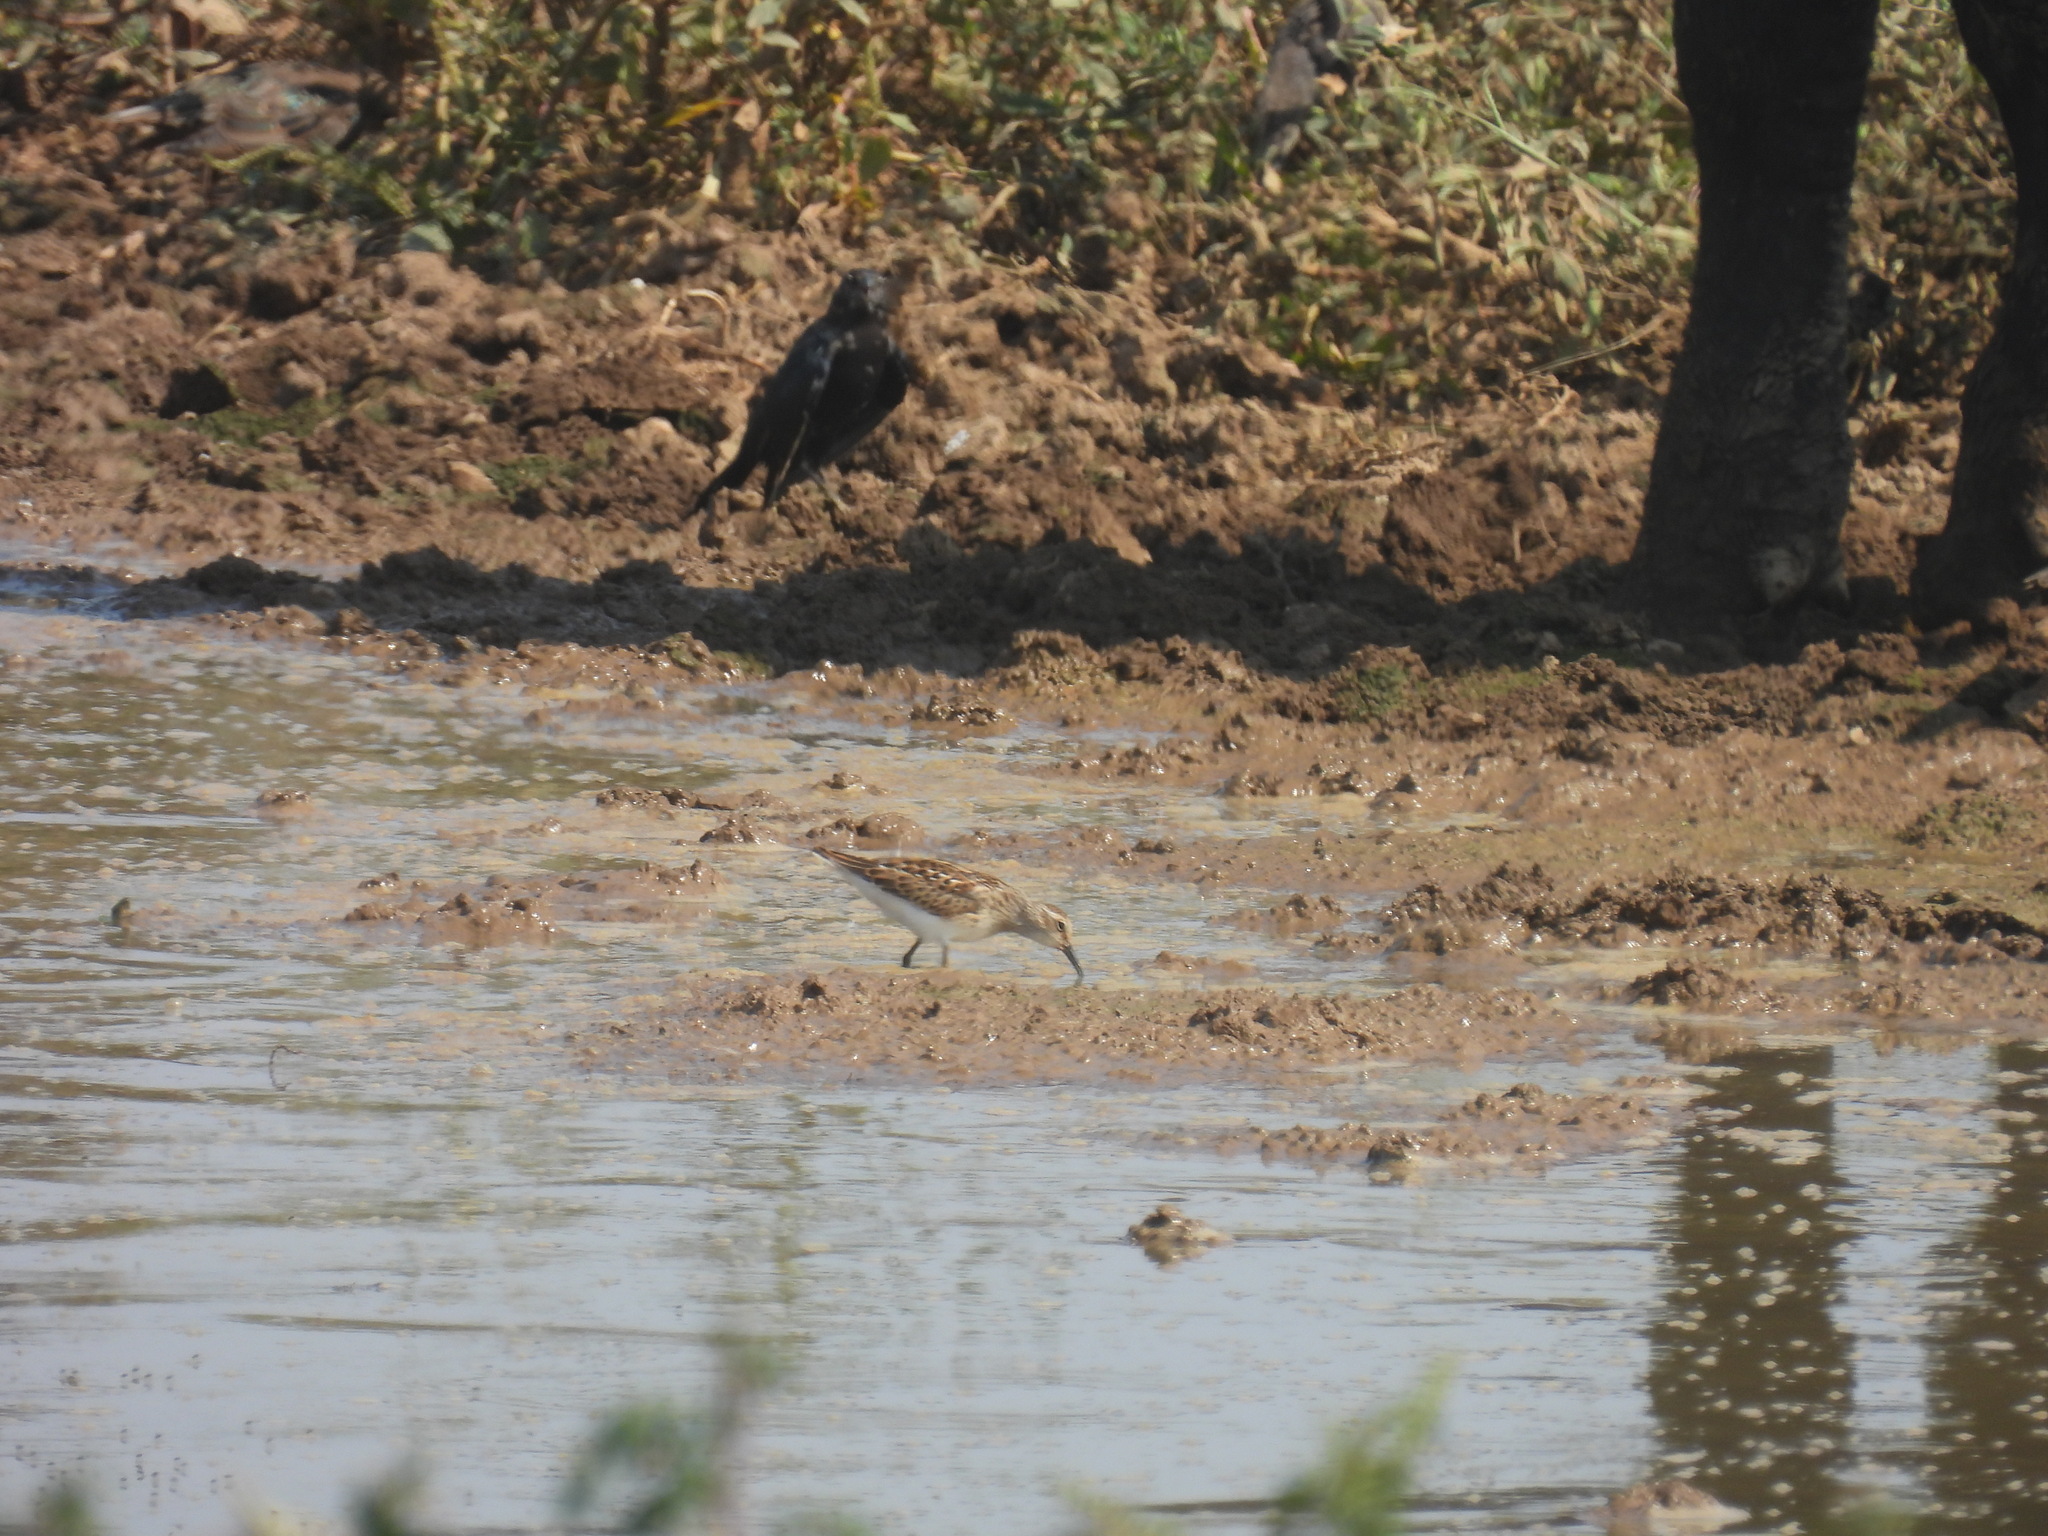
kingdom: Animalia
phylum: Chordata
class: Aves
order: Charadriiformes
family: Scolopacidae
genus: Calidris
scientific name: Calidris minutilla
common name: Least sandpiper
